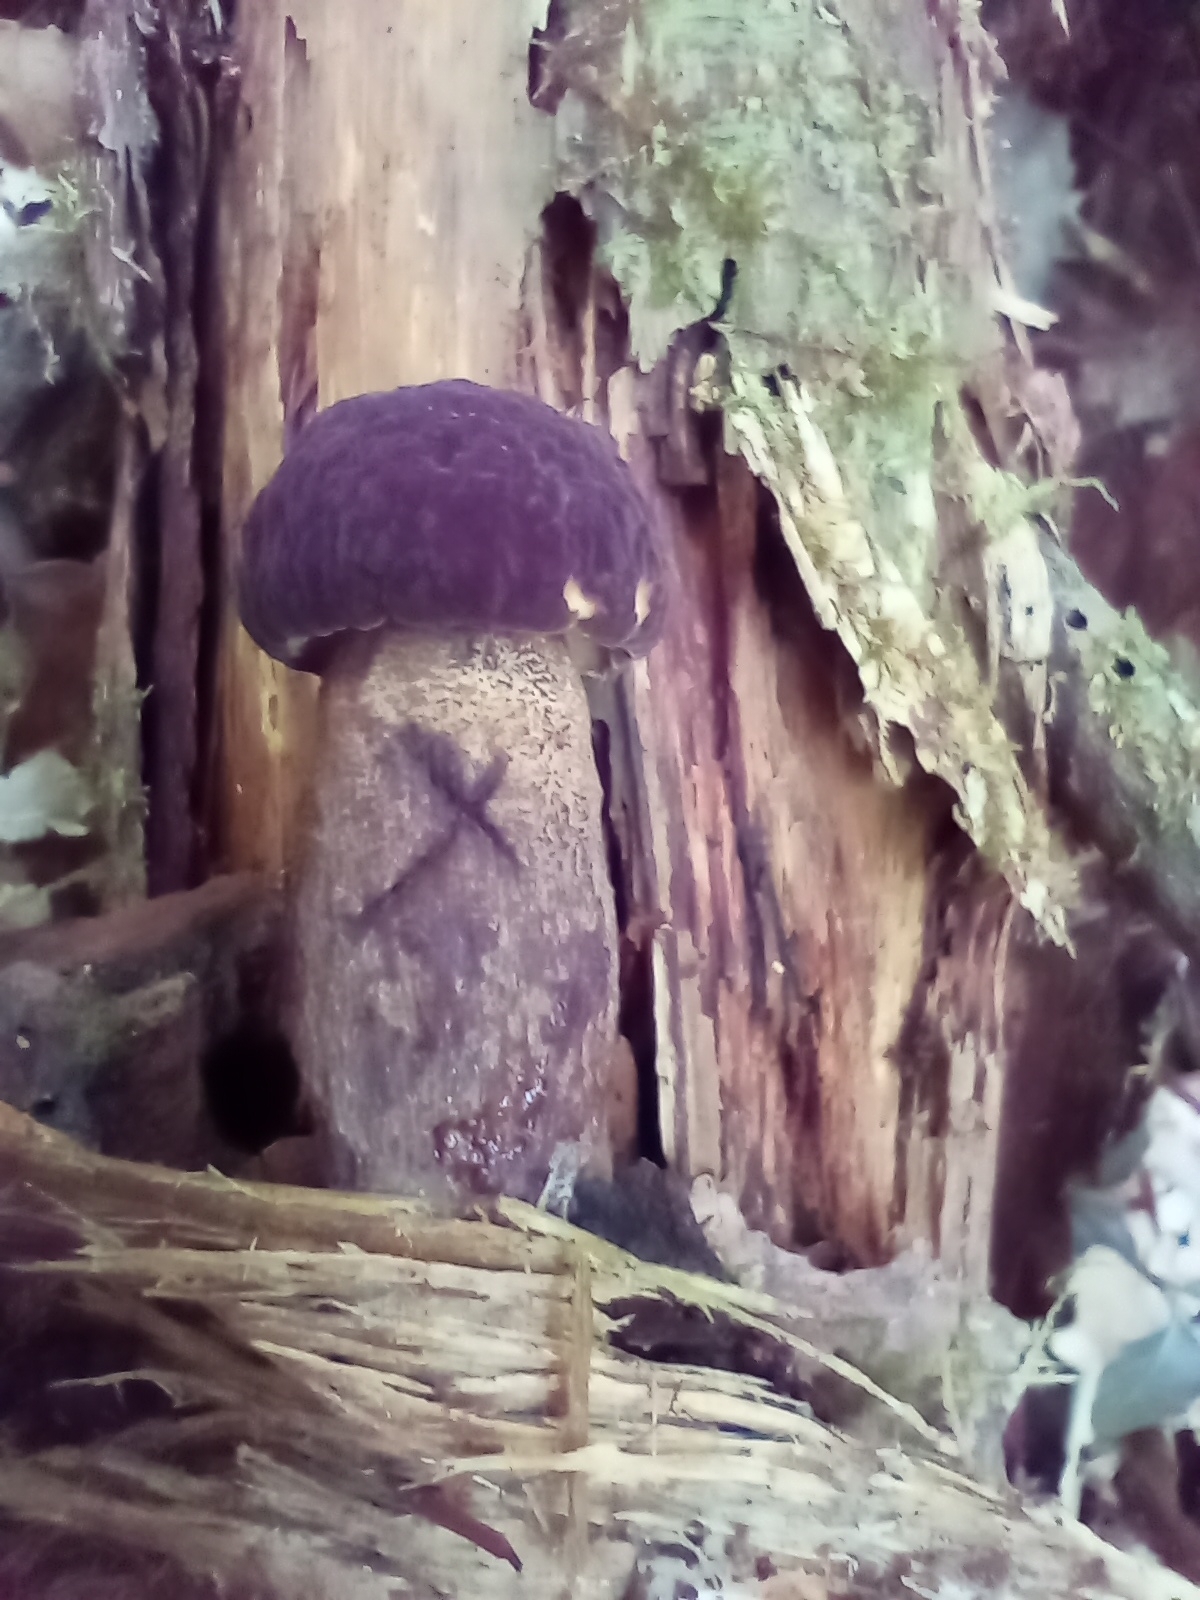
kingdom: Fungi
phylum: Basidiomycota
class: Agaricomycetes
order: Boletales
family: Boletaceae
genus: Tylopilus
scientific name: Tylopilus alboater
